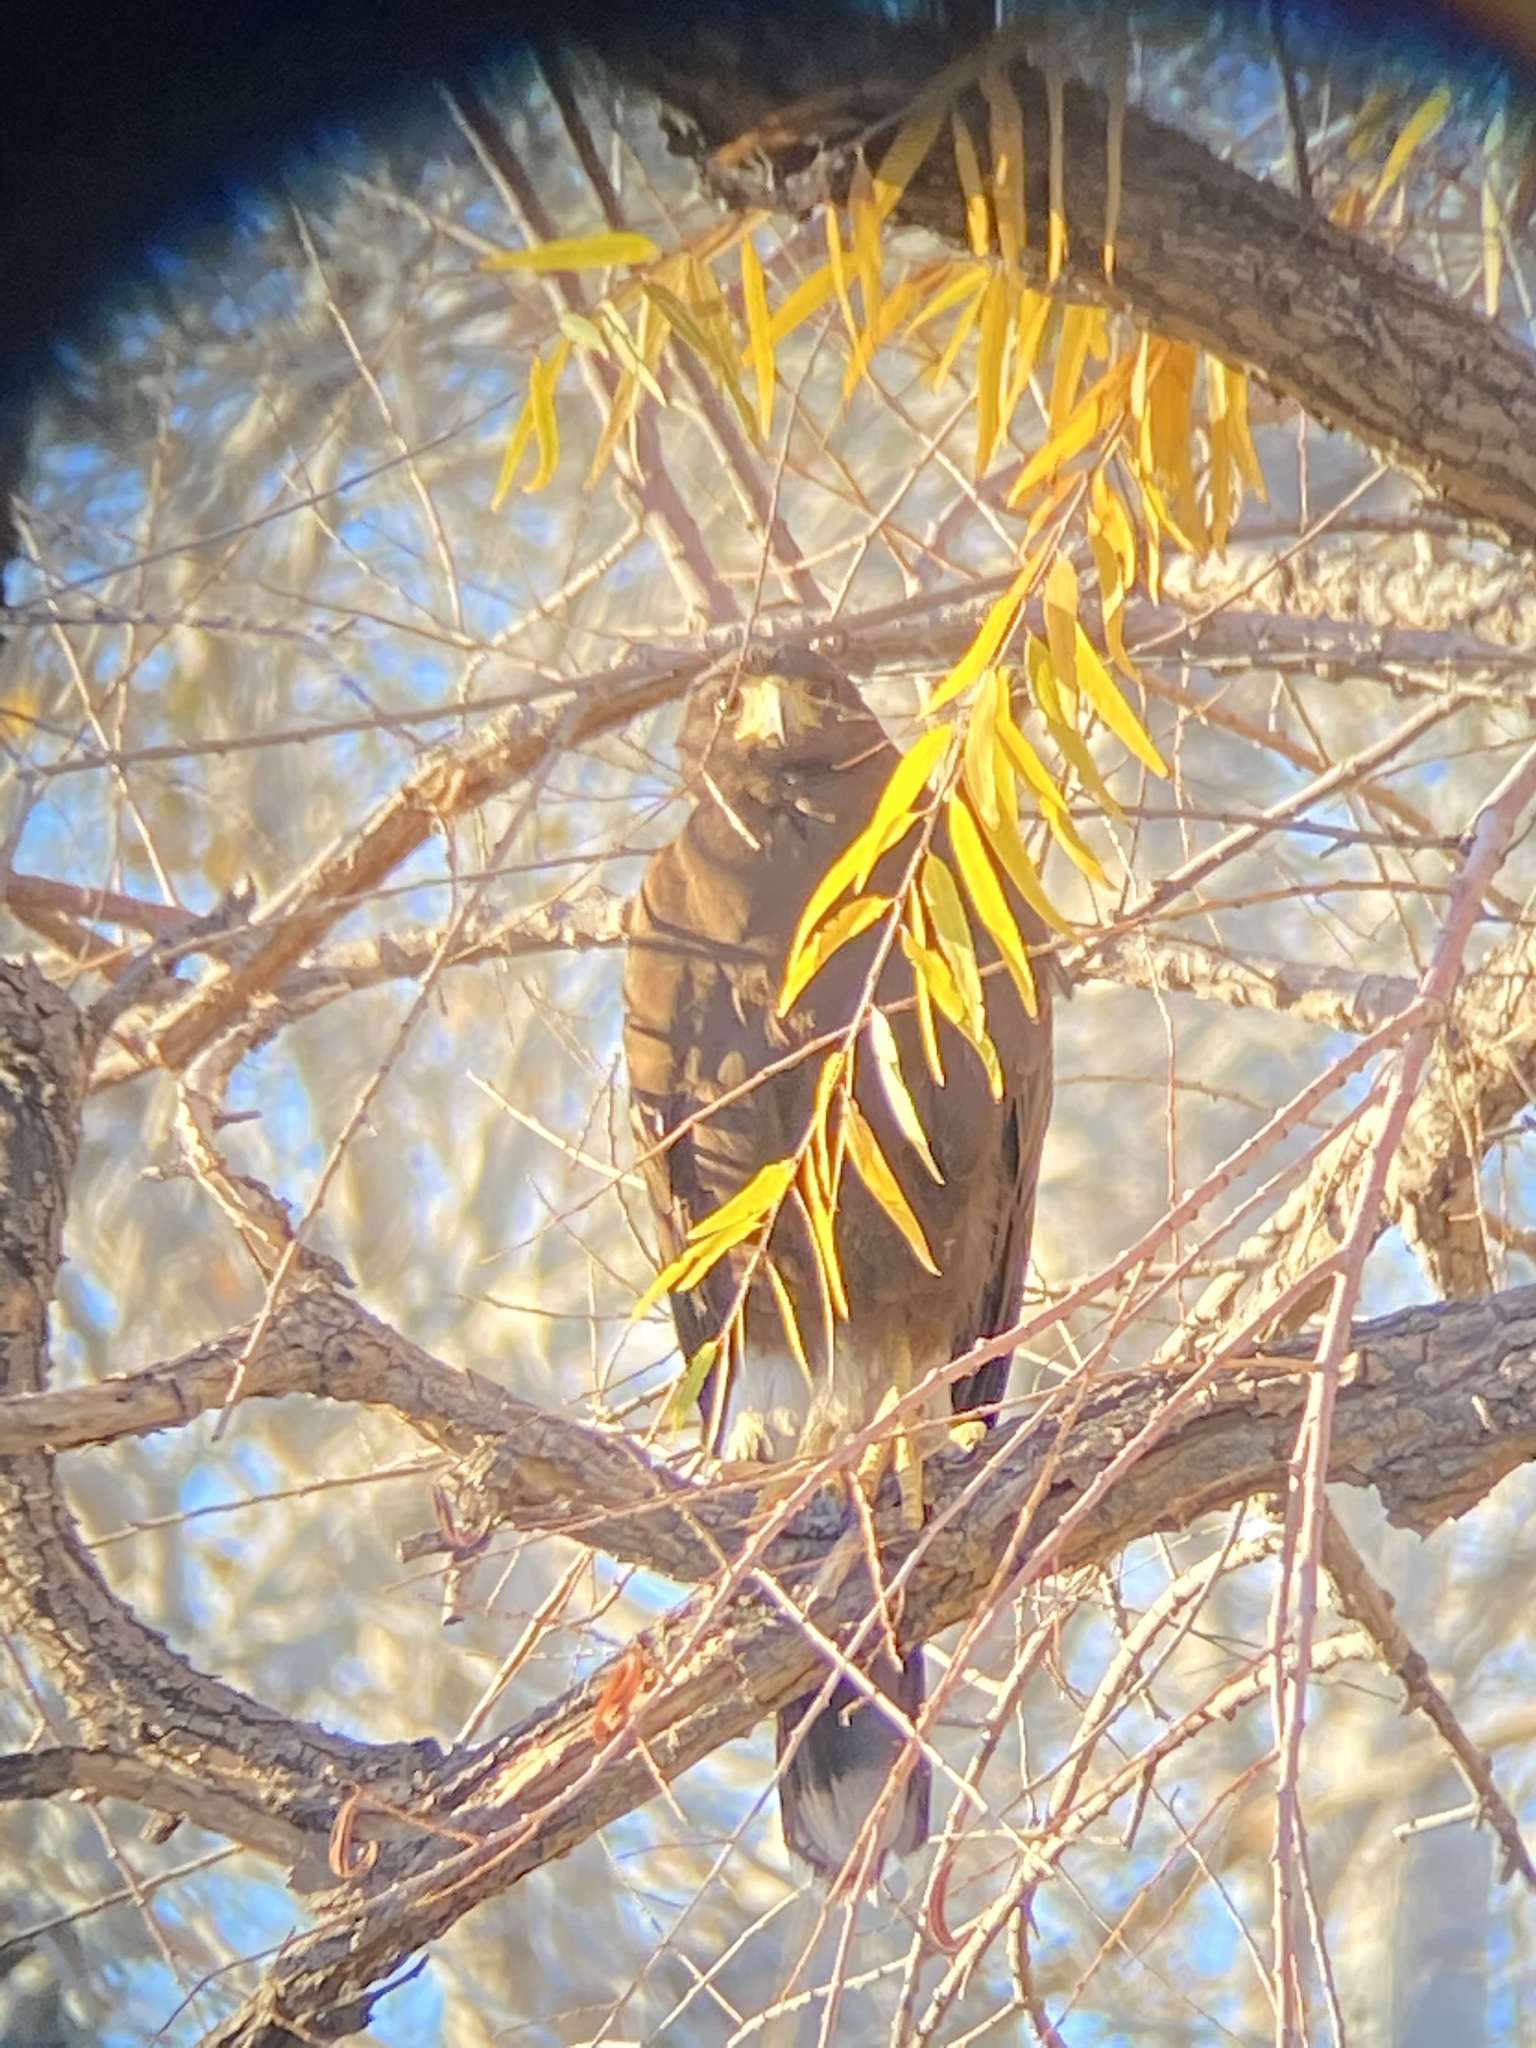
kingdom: Animalia
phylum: Chordata
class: Aves
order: Accipitriformes
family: Accipitridae
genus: Parabuteo
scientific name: Parabuteo unicinctus
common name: Harris's hawk
